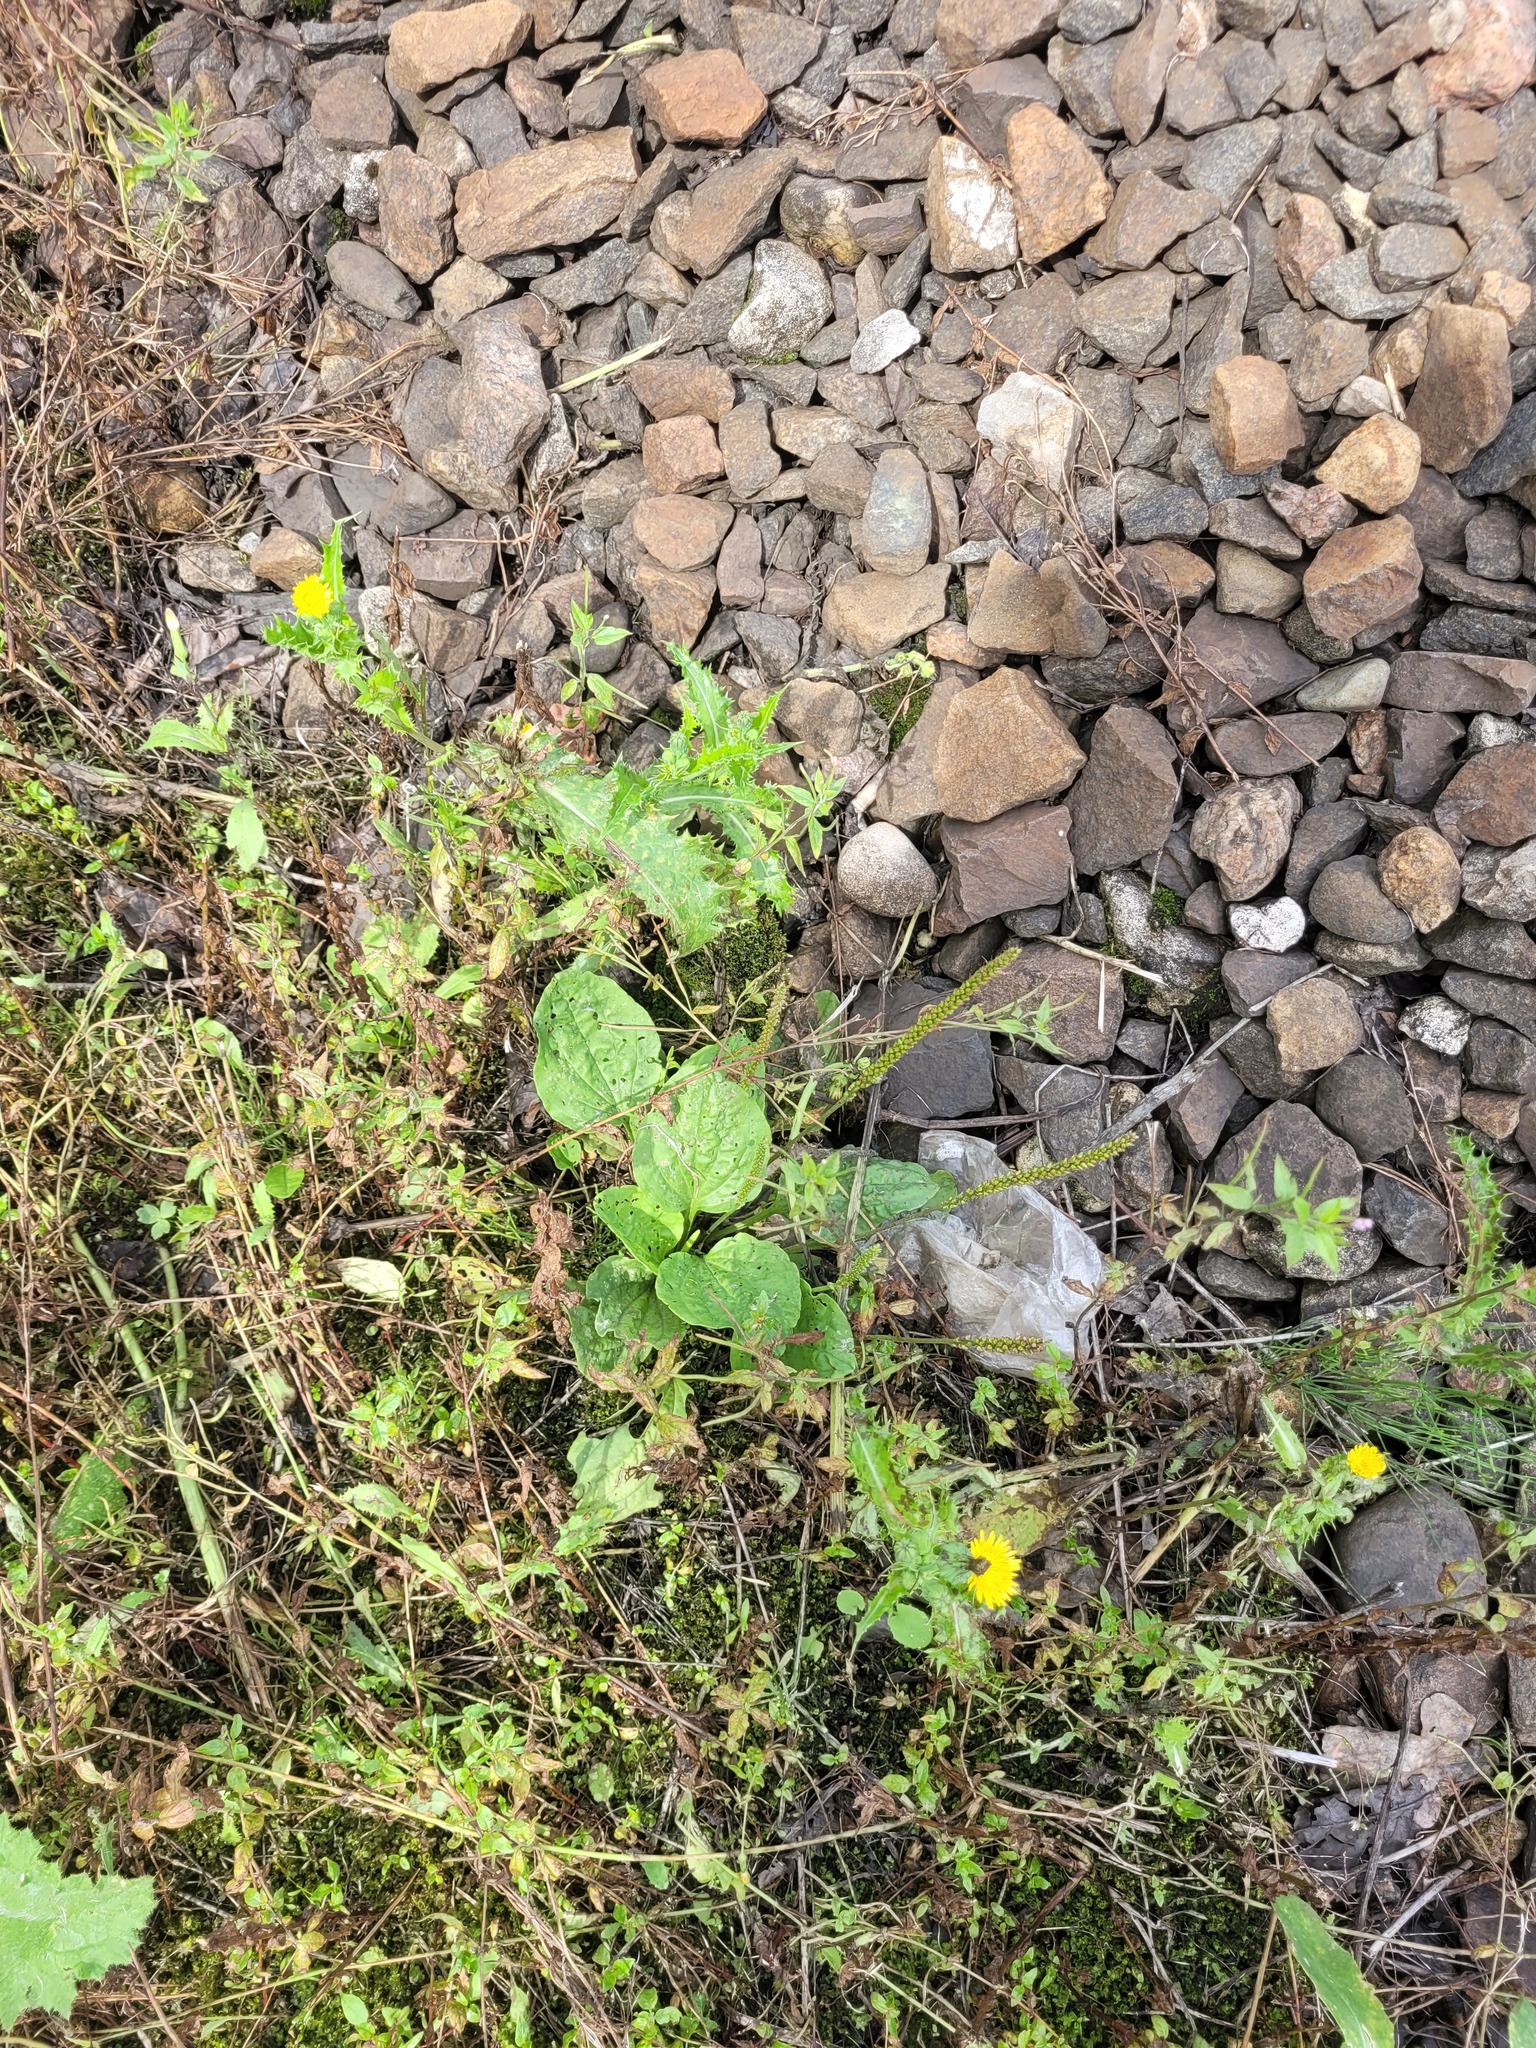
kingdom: Plantae
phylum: Tracheophyta
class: Magnoliopsida
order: Lamiales
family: Plantaginaceae
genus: Plantago
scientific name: Plantago major
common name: Common plantain
